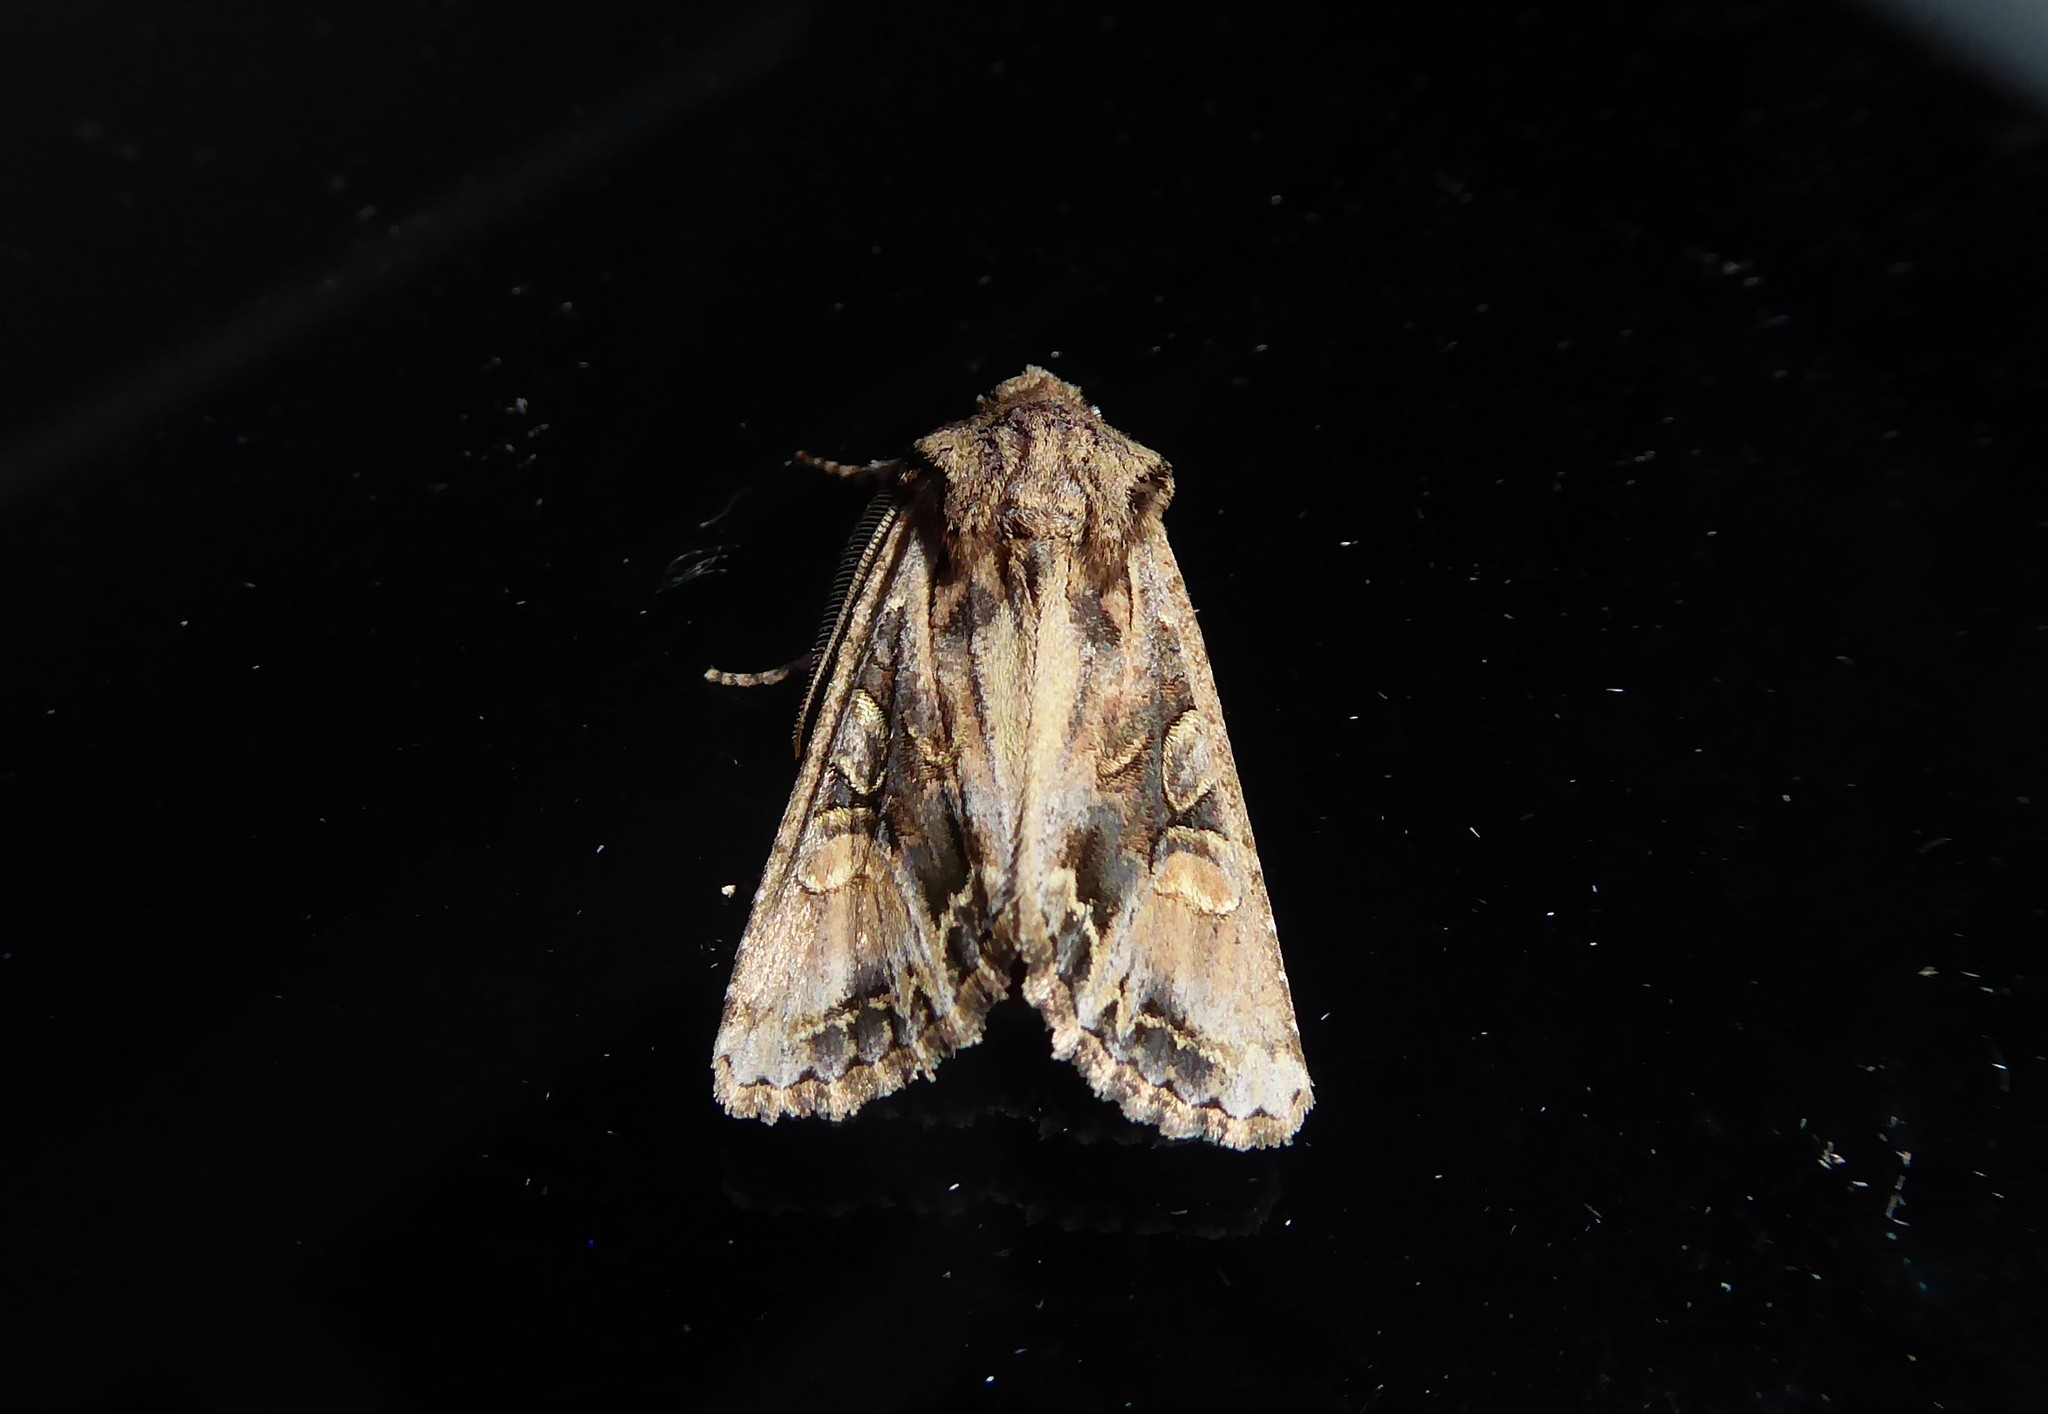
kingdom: Animalia
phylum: Arthropoda
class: Insecta
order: Lepidoptera
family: Noctuidae
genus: Ichneutica
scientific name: Ichneutica
